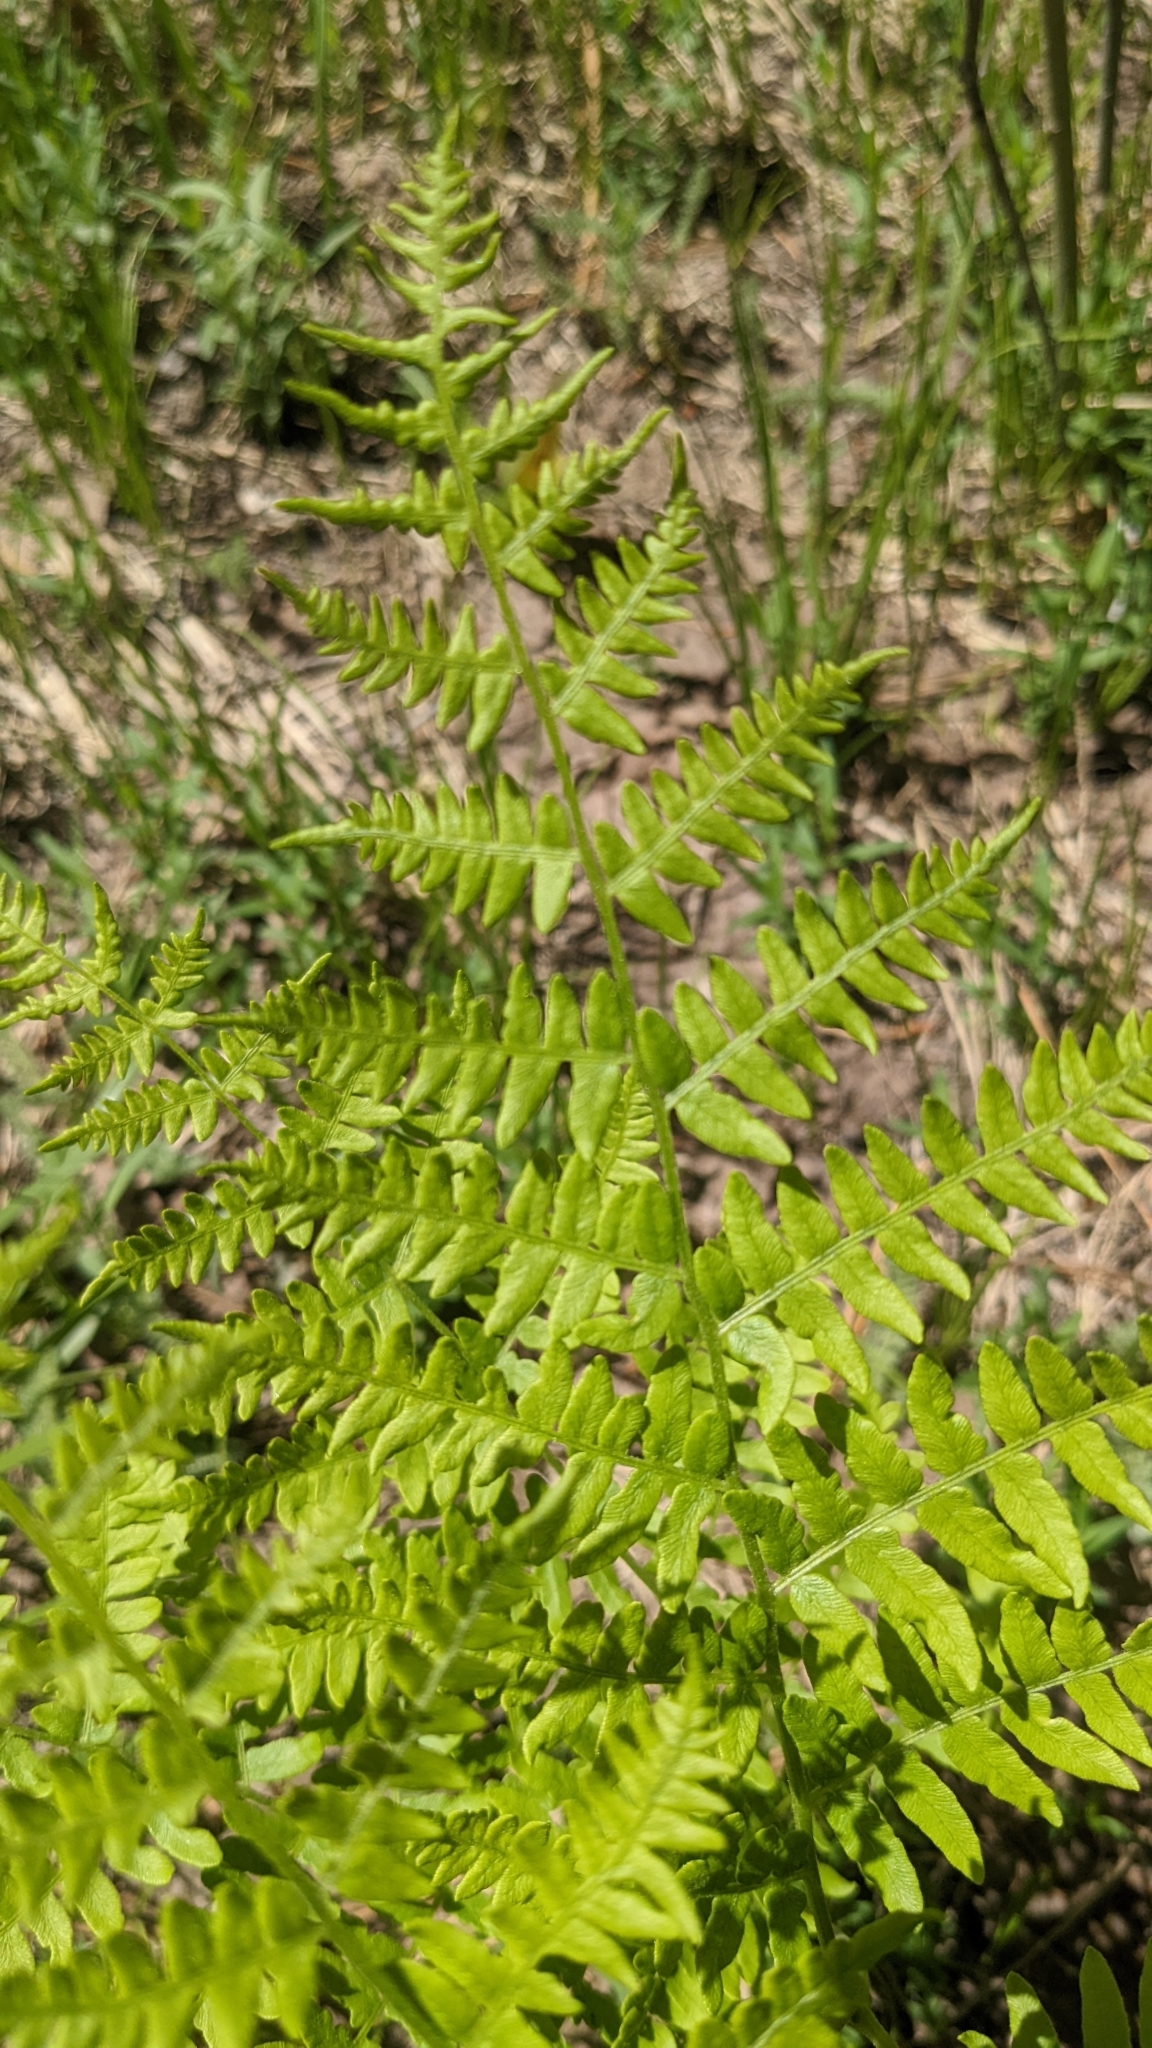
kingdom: Plantae
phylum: Tracheophyta
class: Polypodiopsida
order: Polypodiales
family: Dennstaedtiaceae
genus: Pteridium
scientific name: Pteridium aquilinum
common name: Bracken
